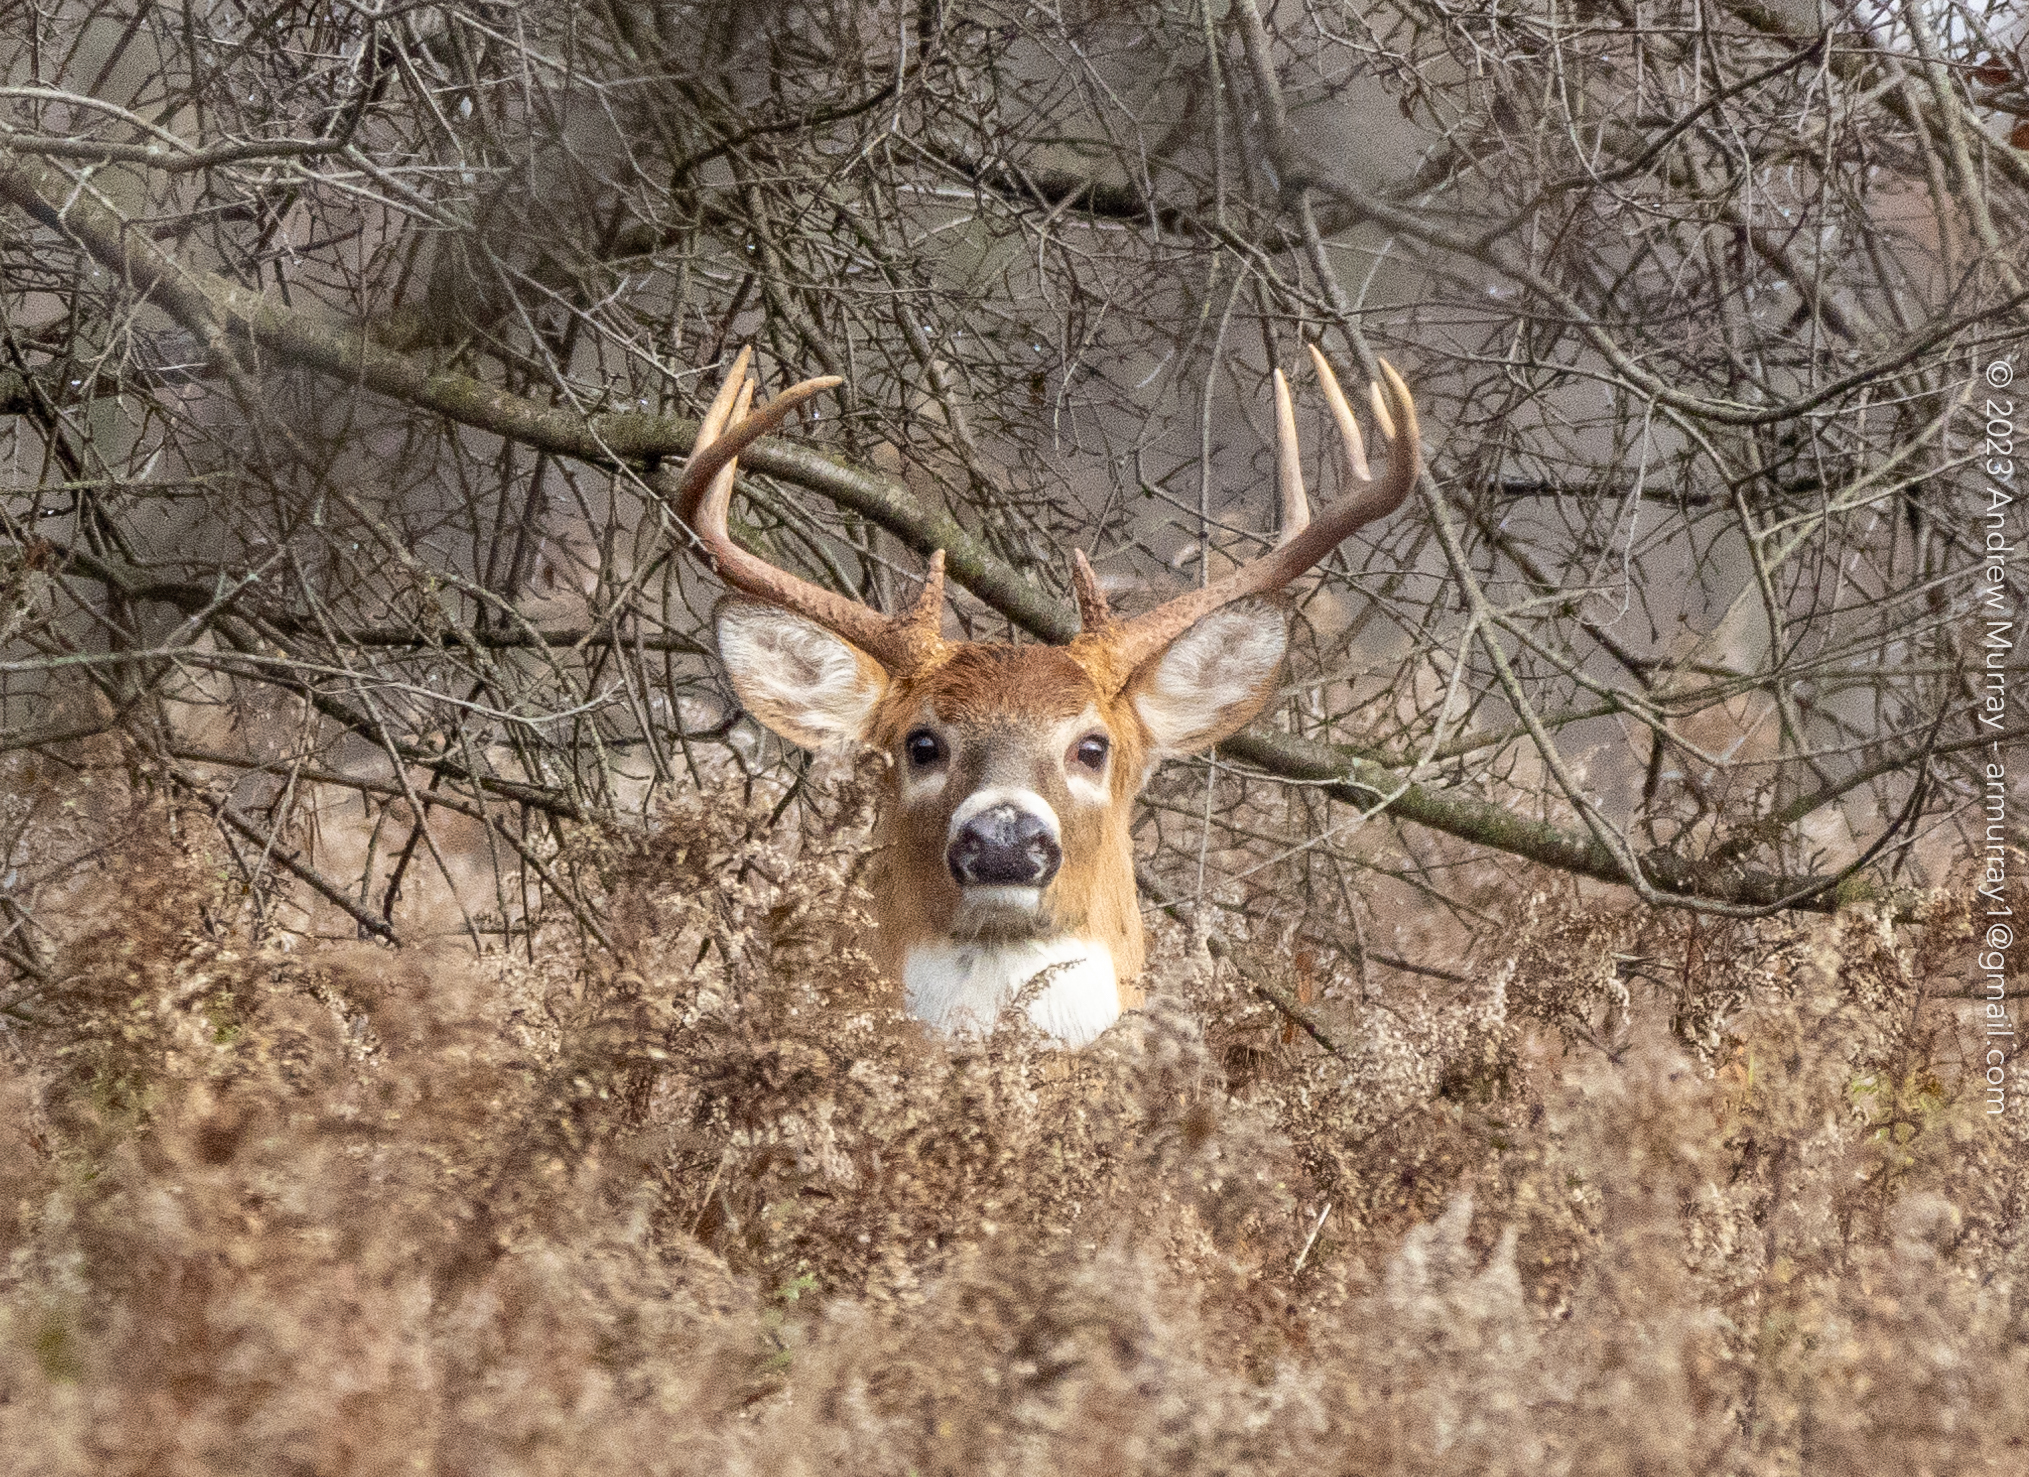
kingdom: Animalia
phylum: Chordata
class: Mammalia
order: Artiodactyla
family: Cervidae
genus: Odocoileus
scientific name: Odocoileus virginianus
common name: White-tailed deer
